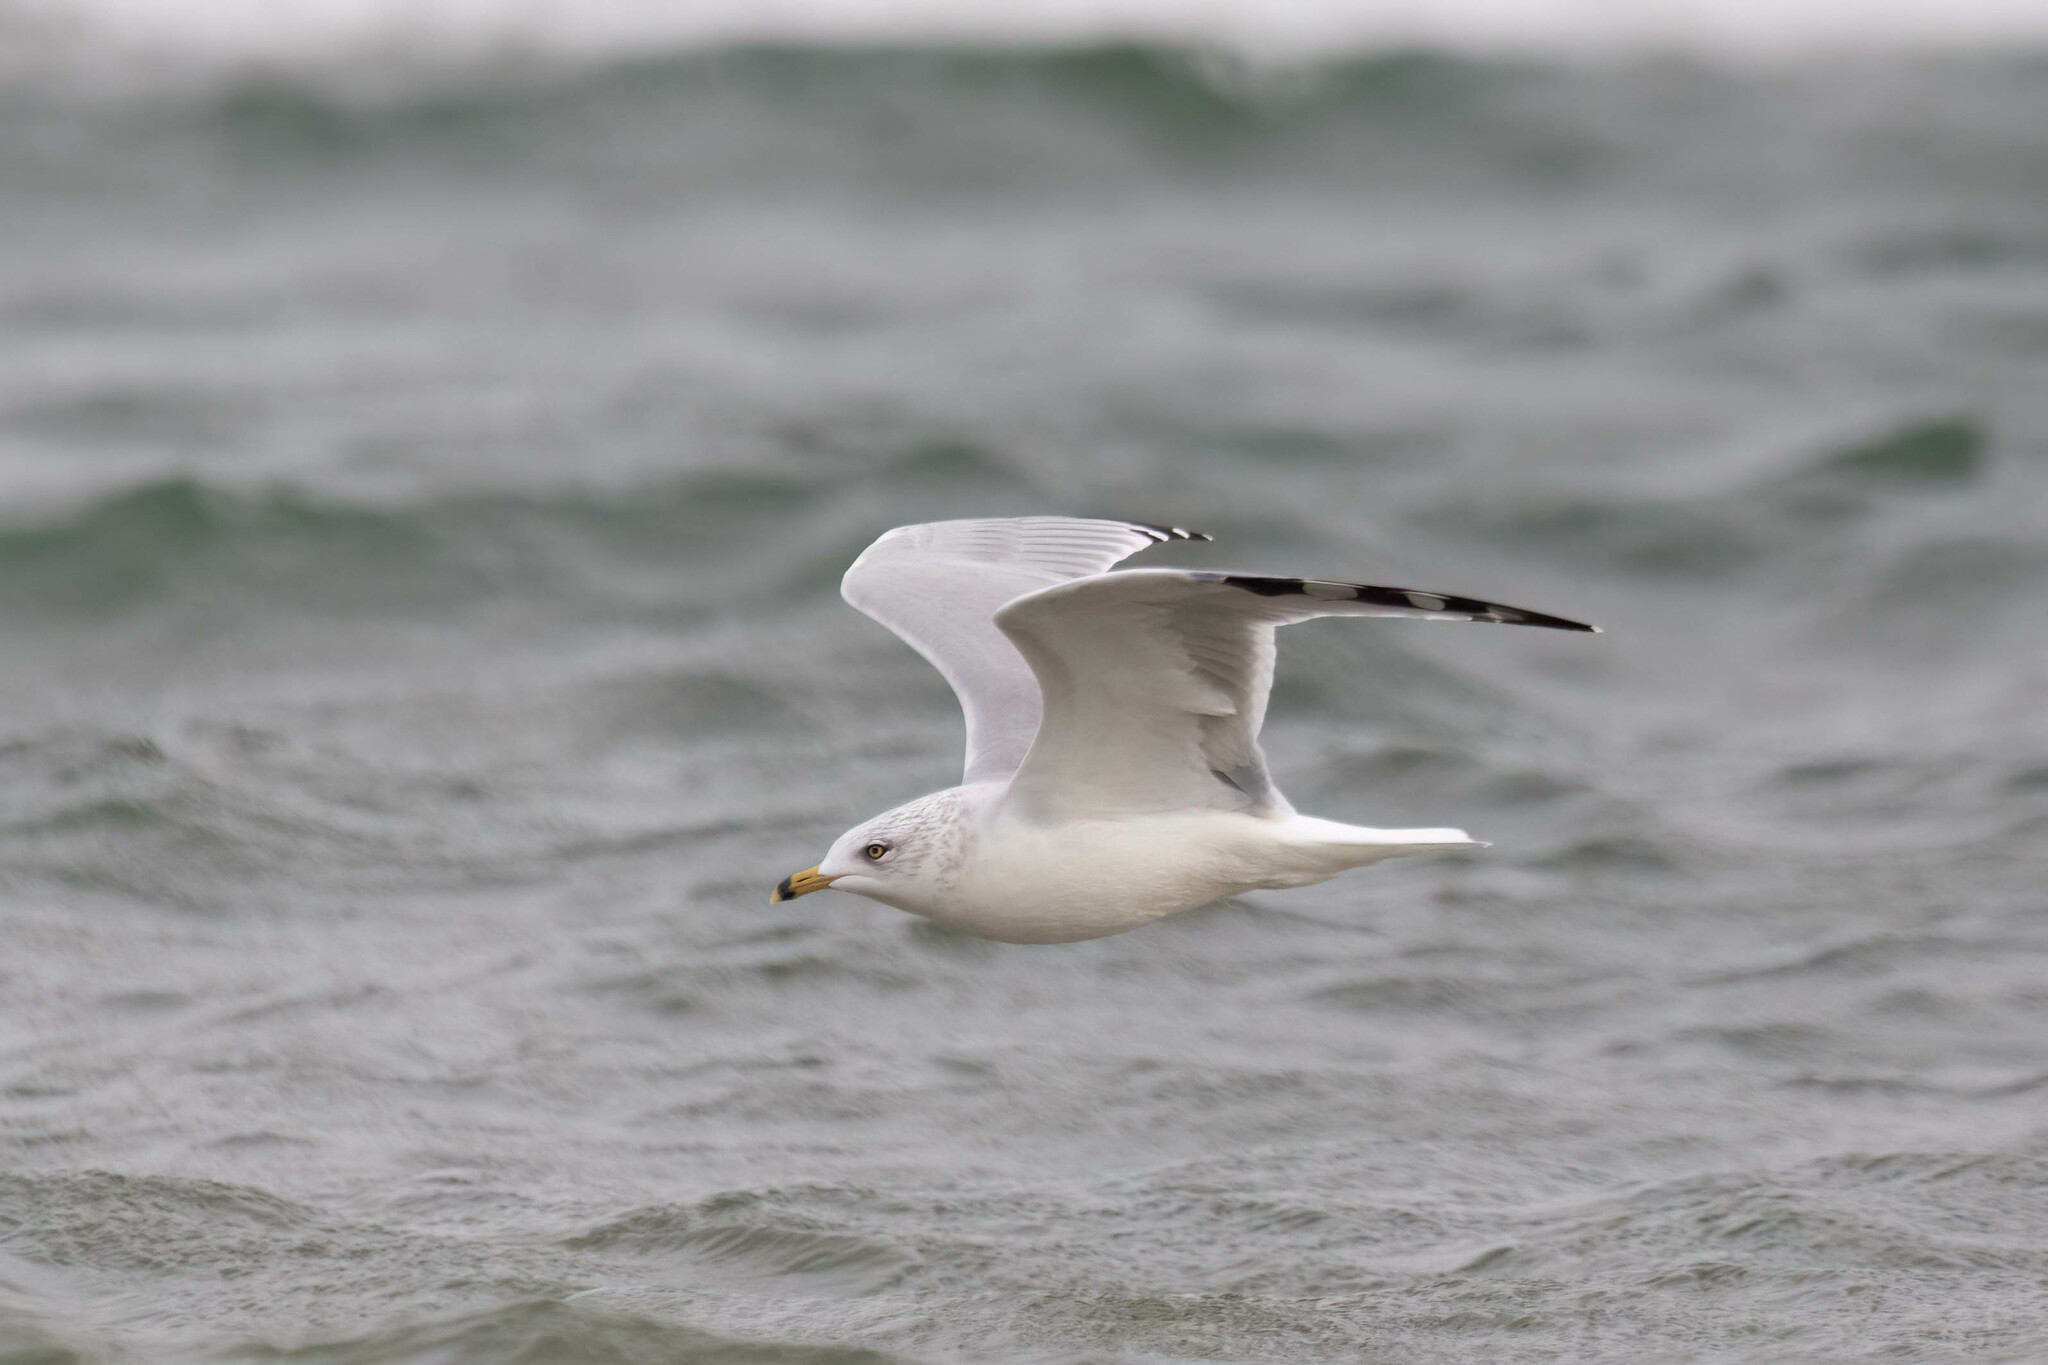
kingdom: Animalia
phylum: Chordata
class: Aves
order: Charadriiformes
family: Laridae
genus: Larus
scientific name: Larus delawarensis
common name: Ring-billed gull
